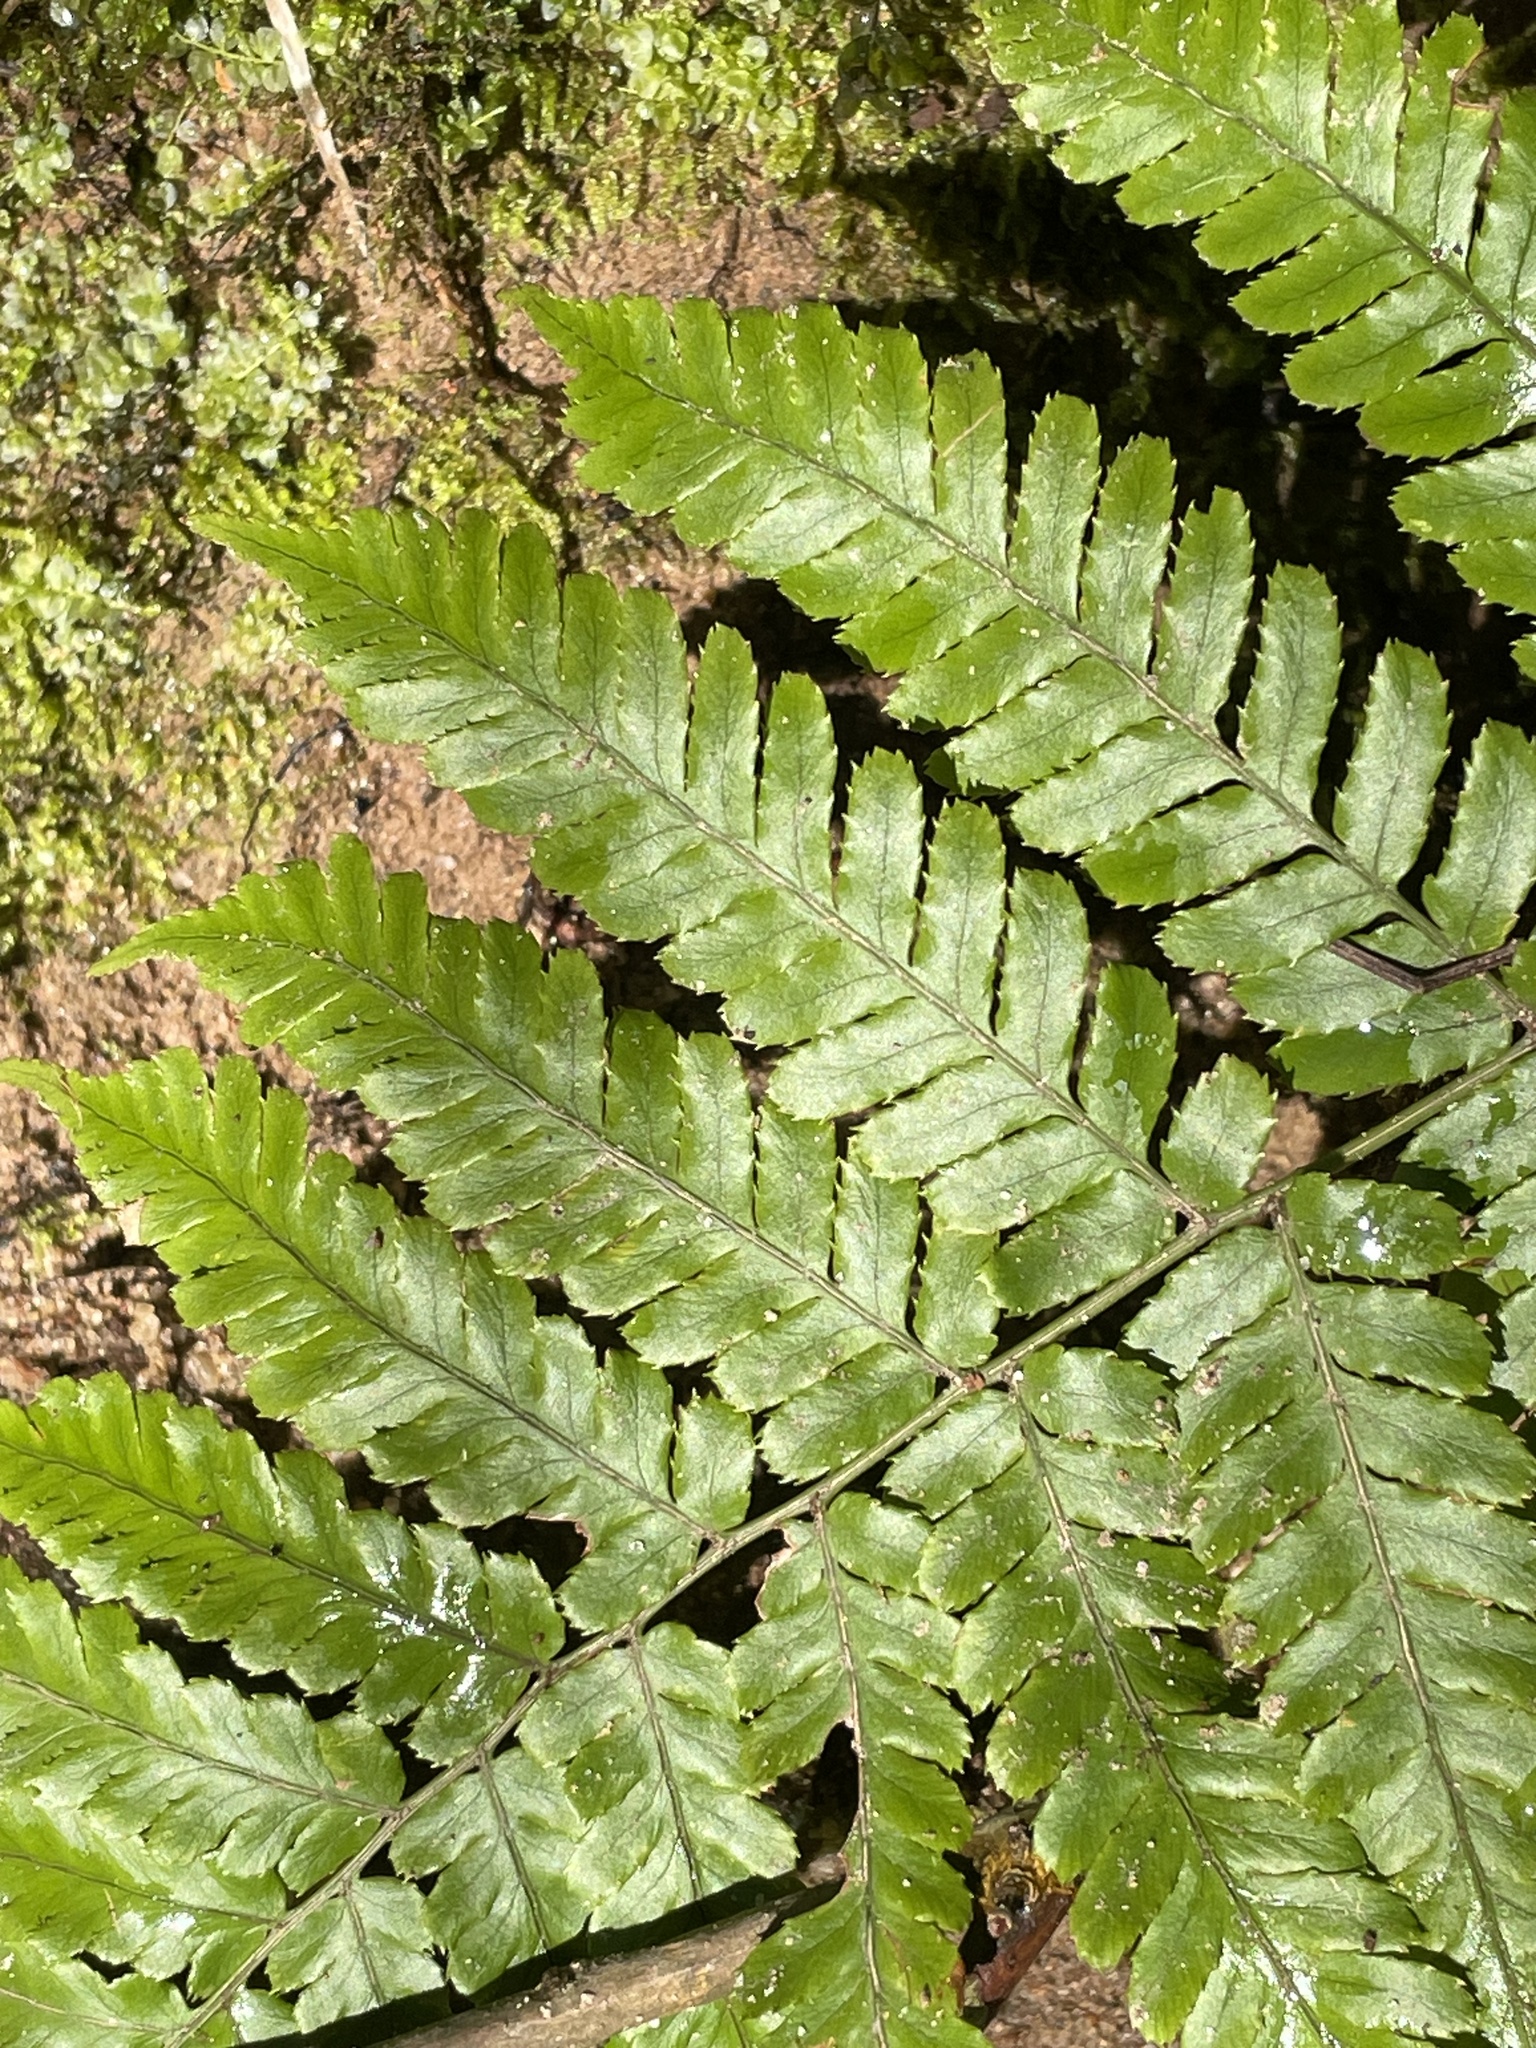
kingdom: Plantae
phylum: Tracheophyta
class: Polypodiopsida
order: Polypodiales
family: Dryopteridaceae
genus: Dryopteris
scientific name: Dryopteris erythrosora
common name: Autumn fern
